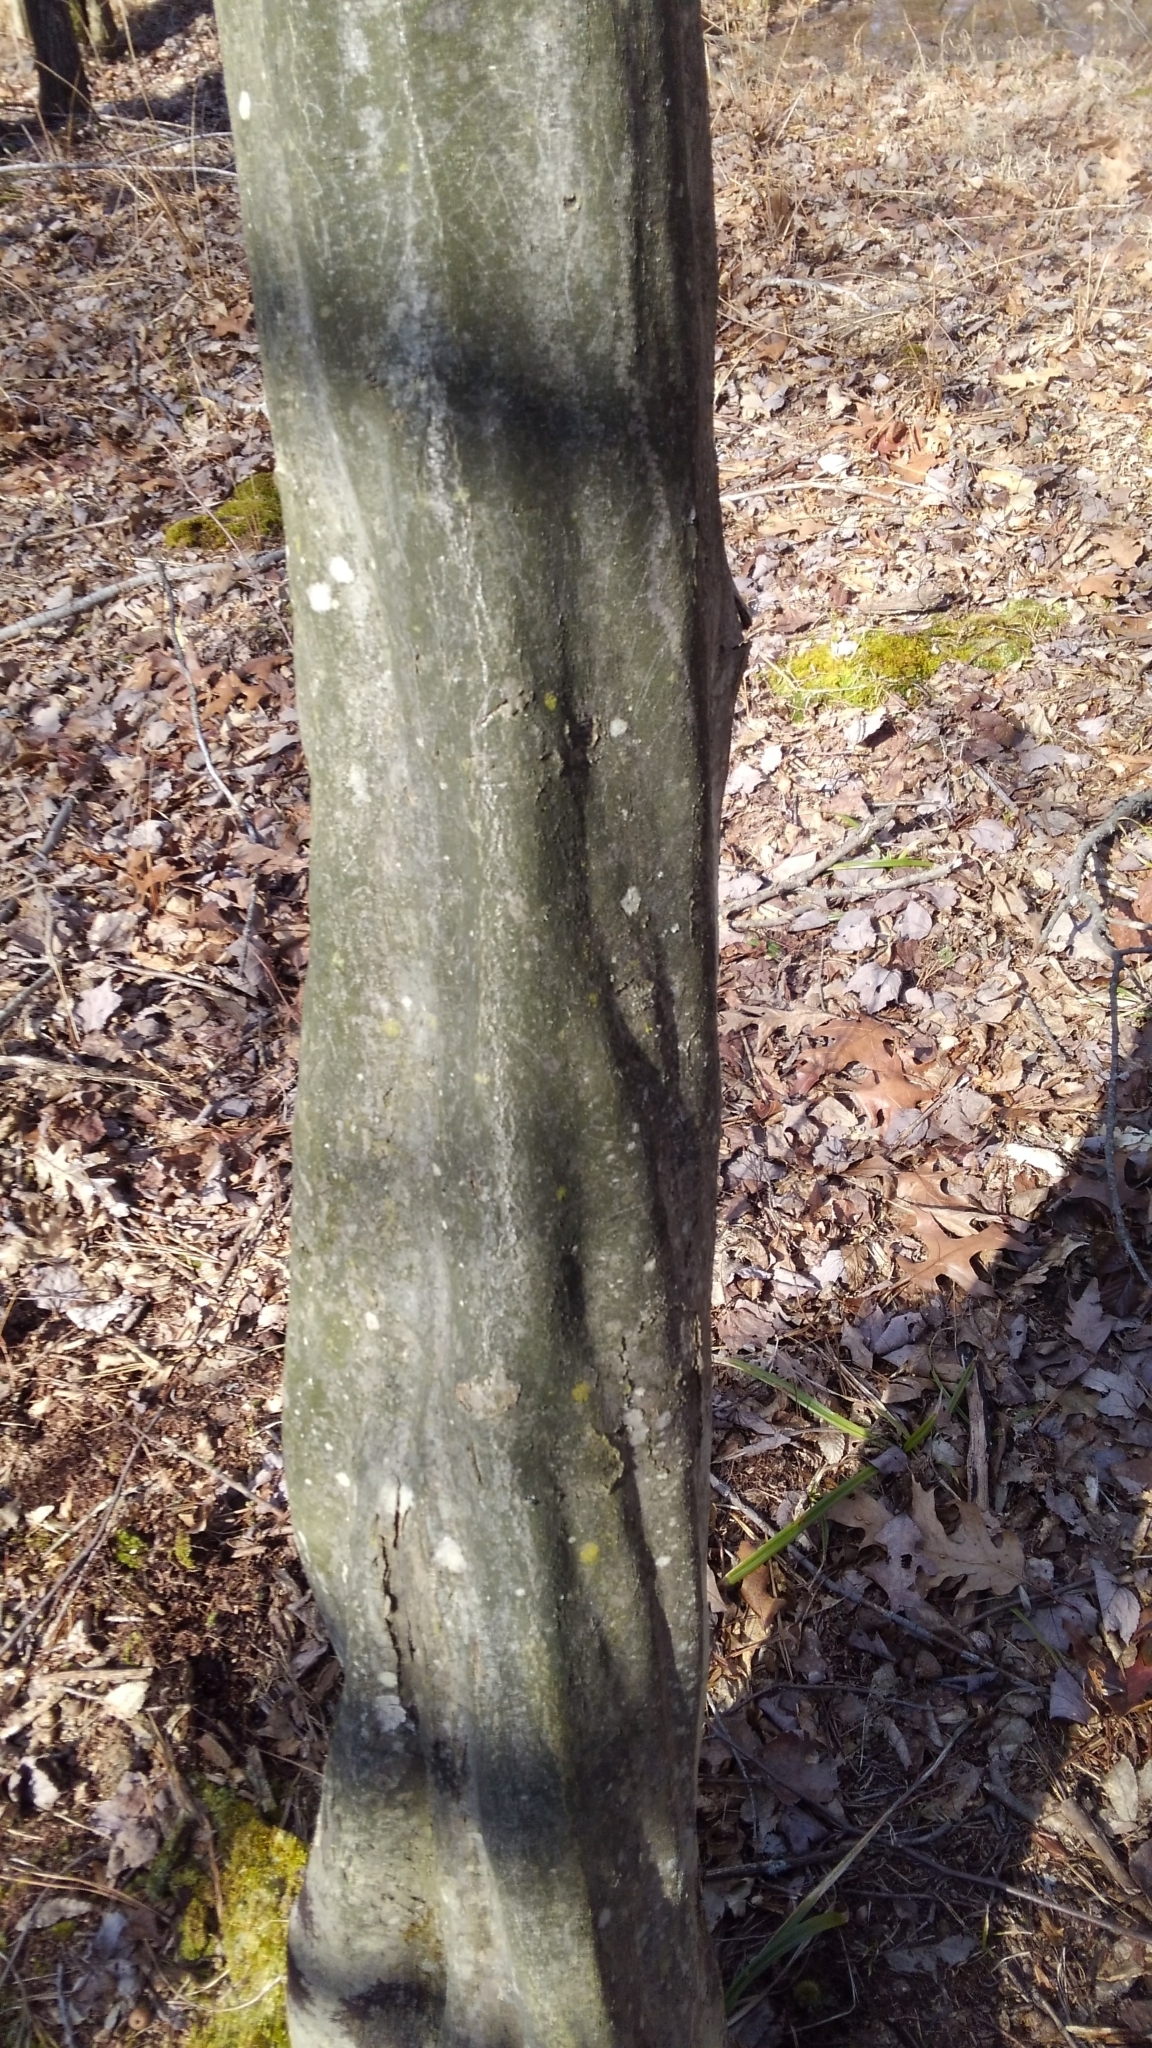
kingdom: Plantae
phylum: Tracheophyta
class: Magnoliopsida
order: Fagales
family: Betulaceae
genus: Carpinus
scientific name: Carpinus caroliniana
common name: American hornbeam
